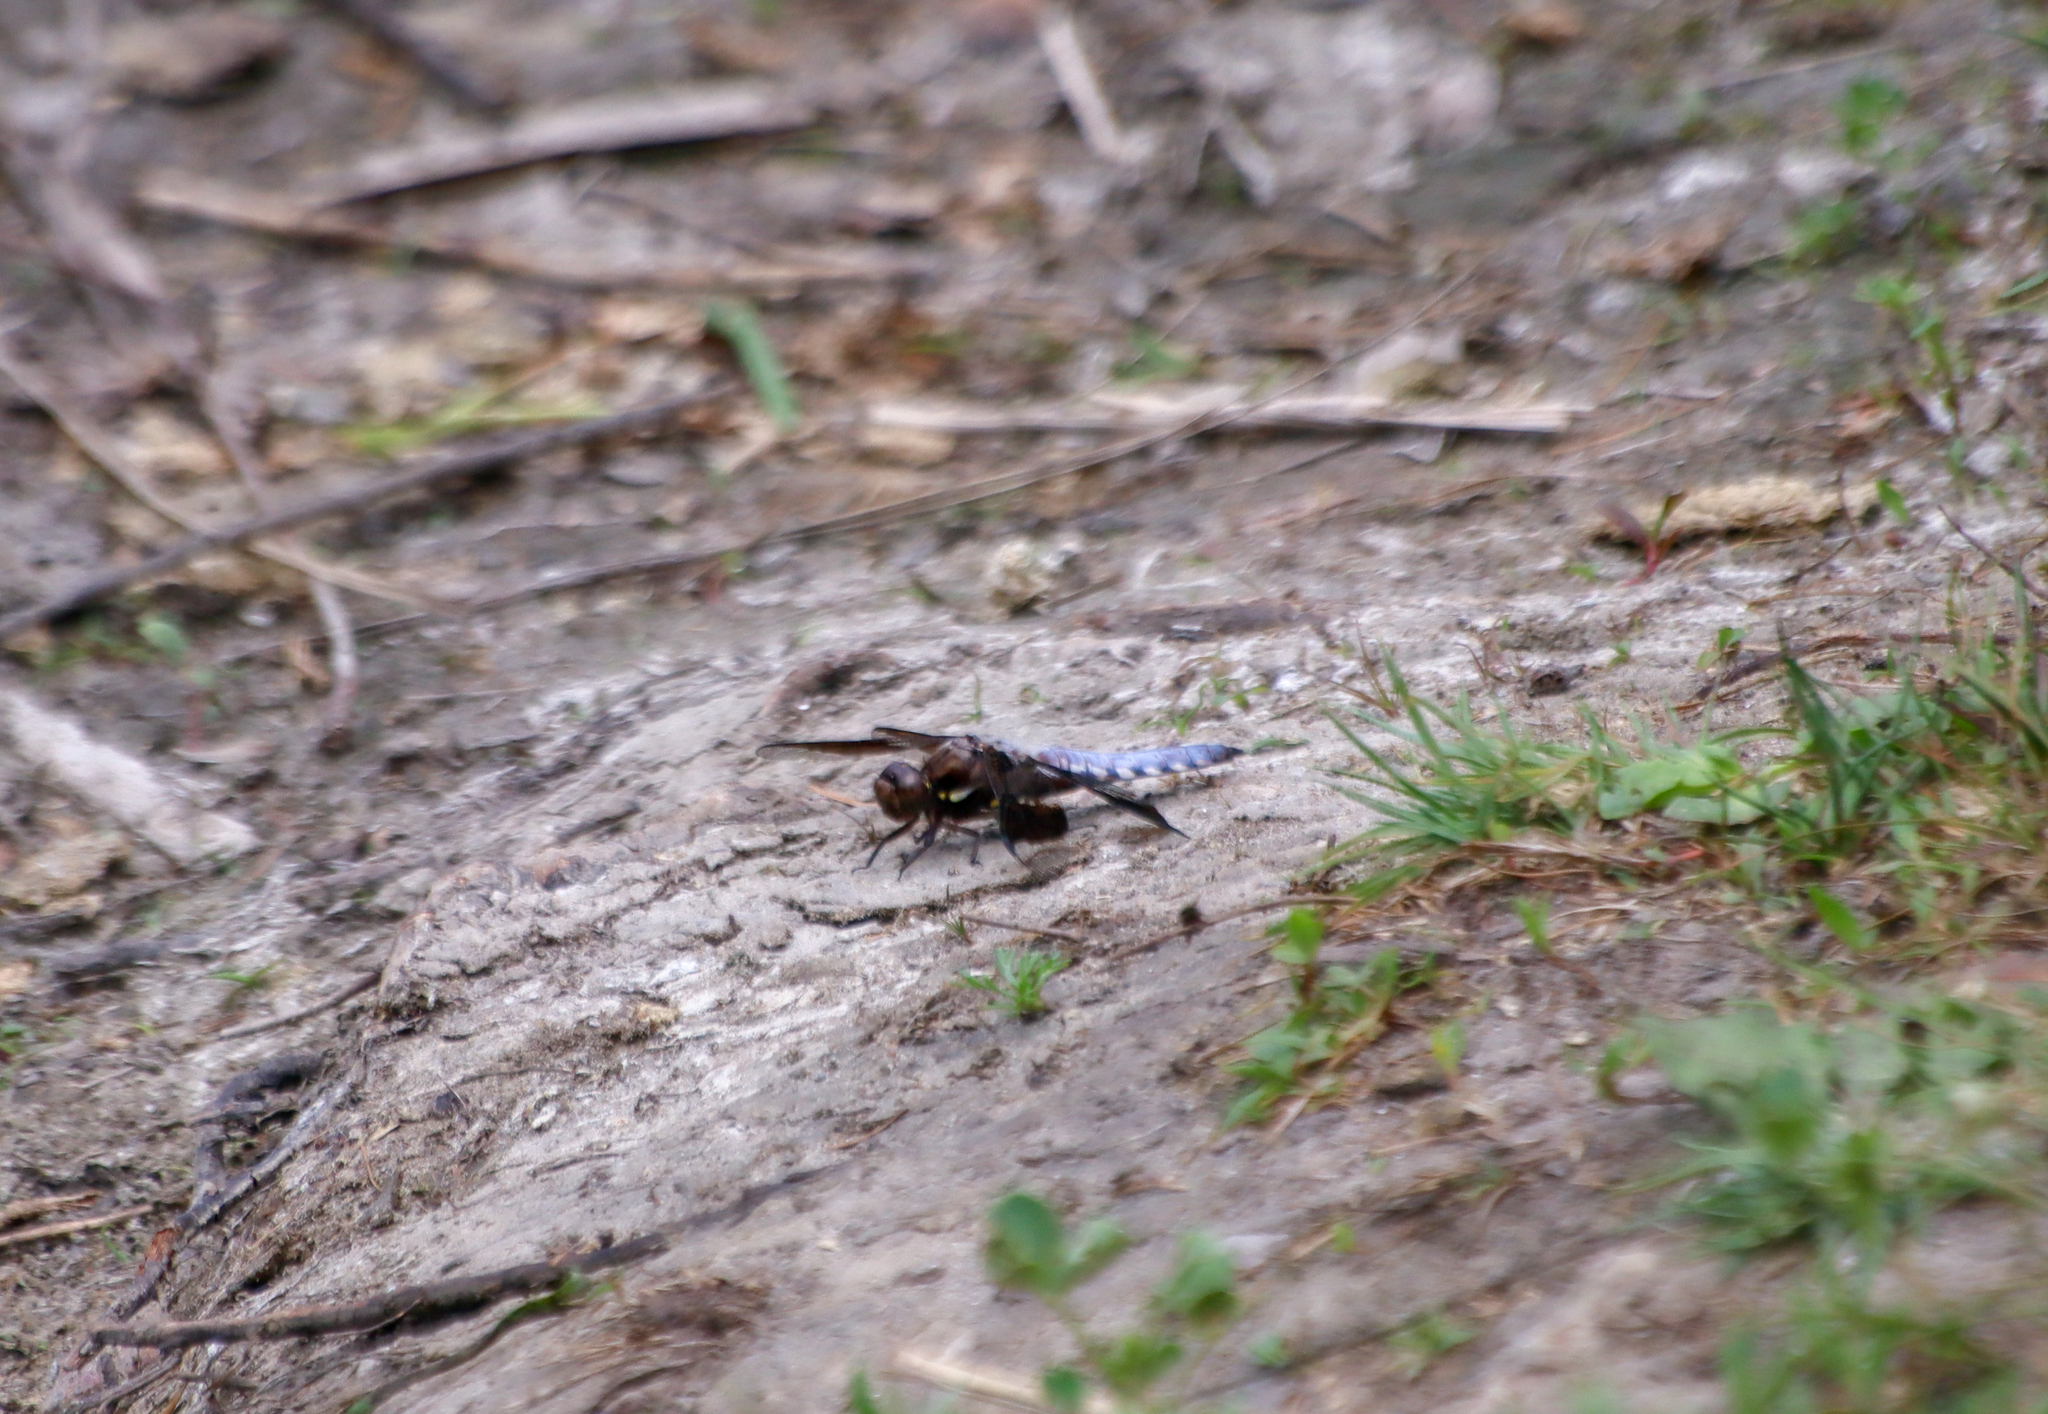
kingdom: Animalia
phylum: Arthropoda
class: Insecta
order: Odonata
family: Libellulidae
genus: Plathemis
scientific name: Plathemis lydia
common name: Common whitetail
